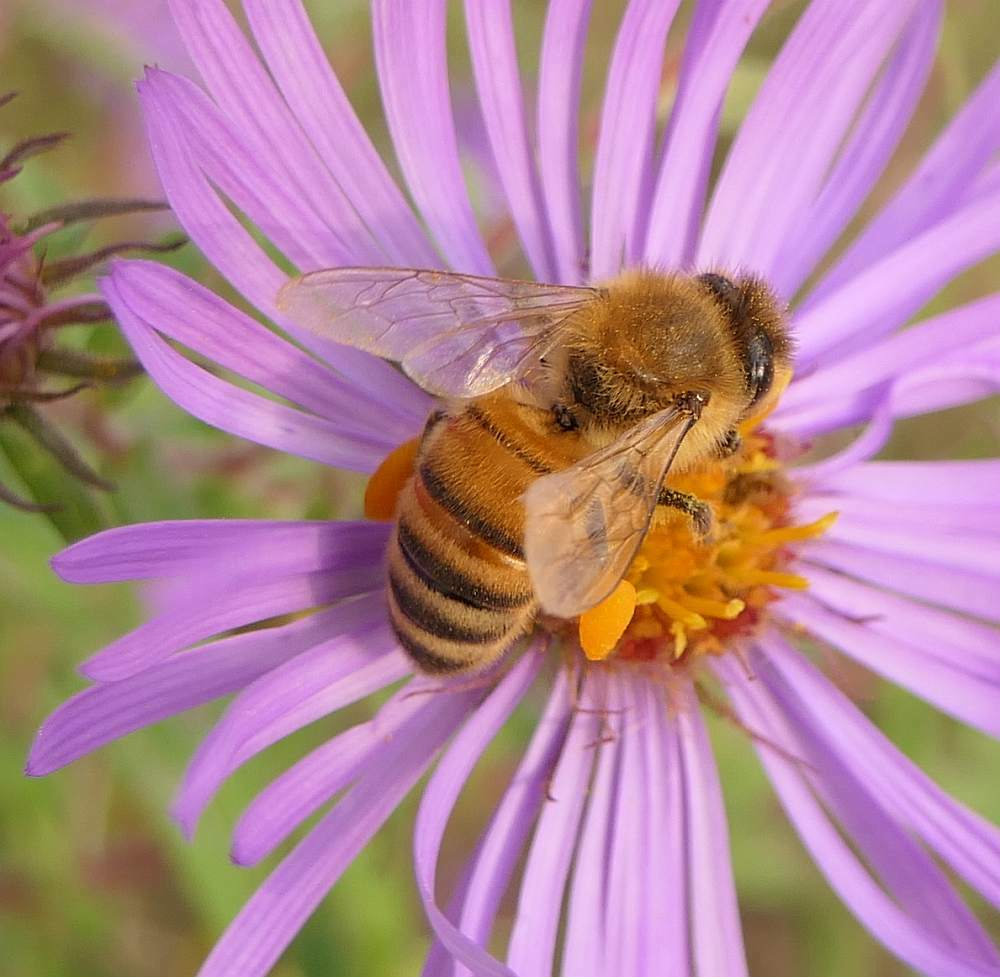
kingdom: Animalia
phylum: Arthropoda
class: Insecta
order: Hymenoptera
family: Apidae
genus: Apis
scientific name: Apis mellifera
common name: Honey bee
